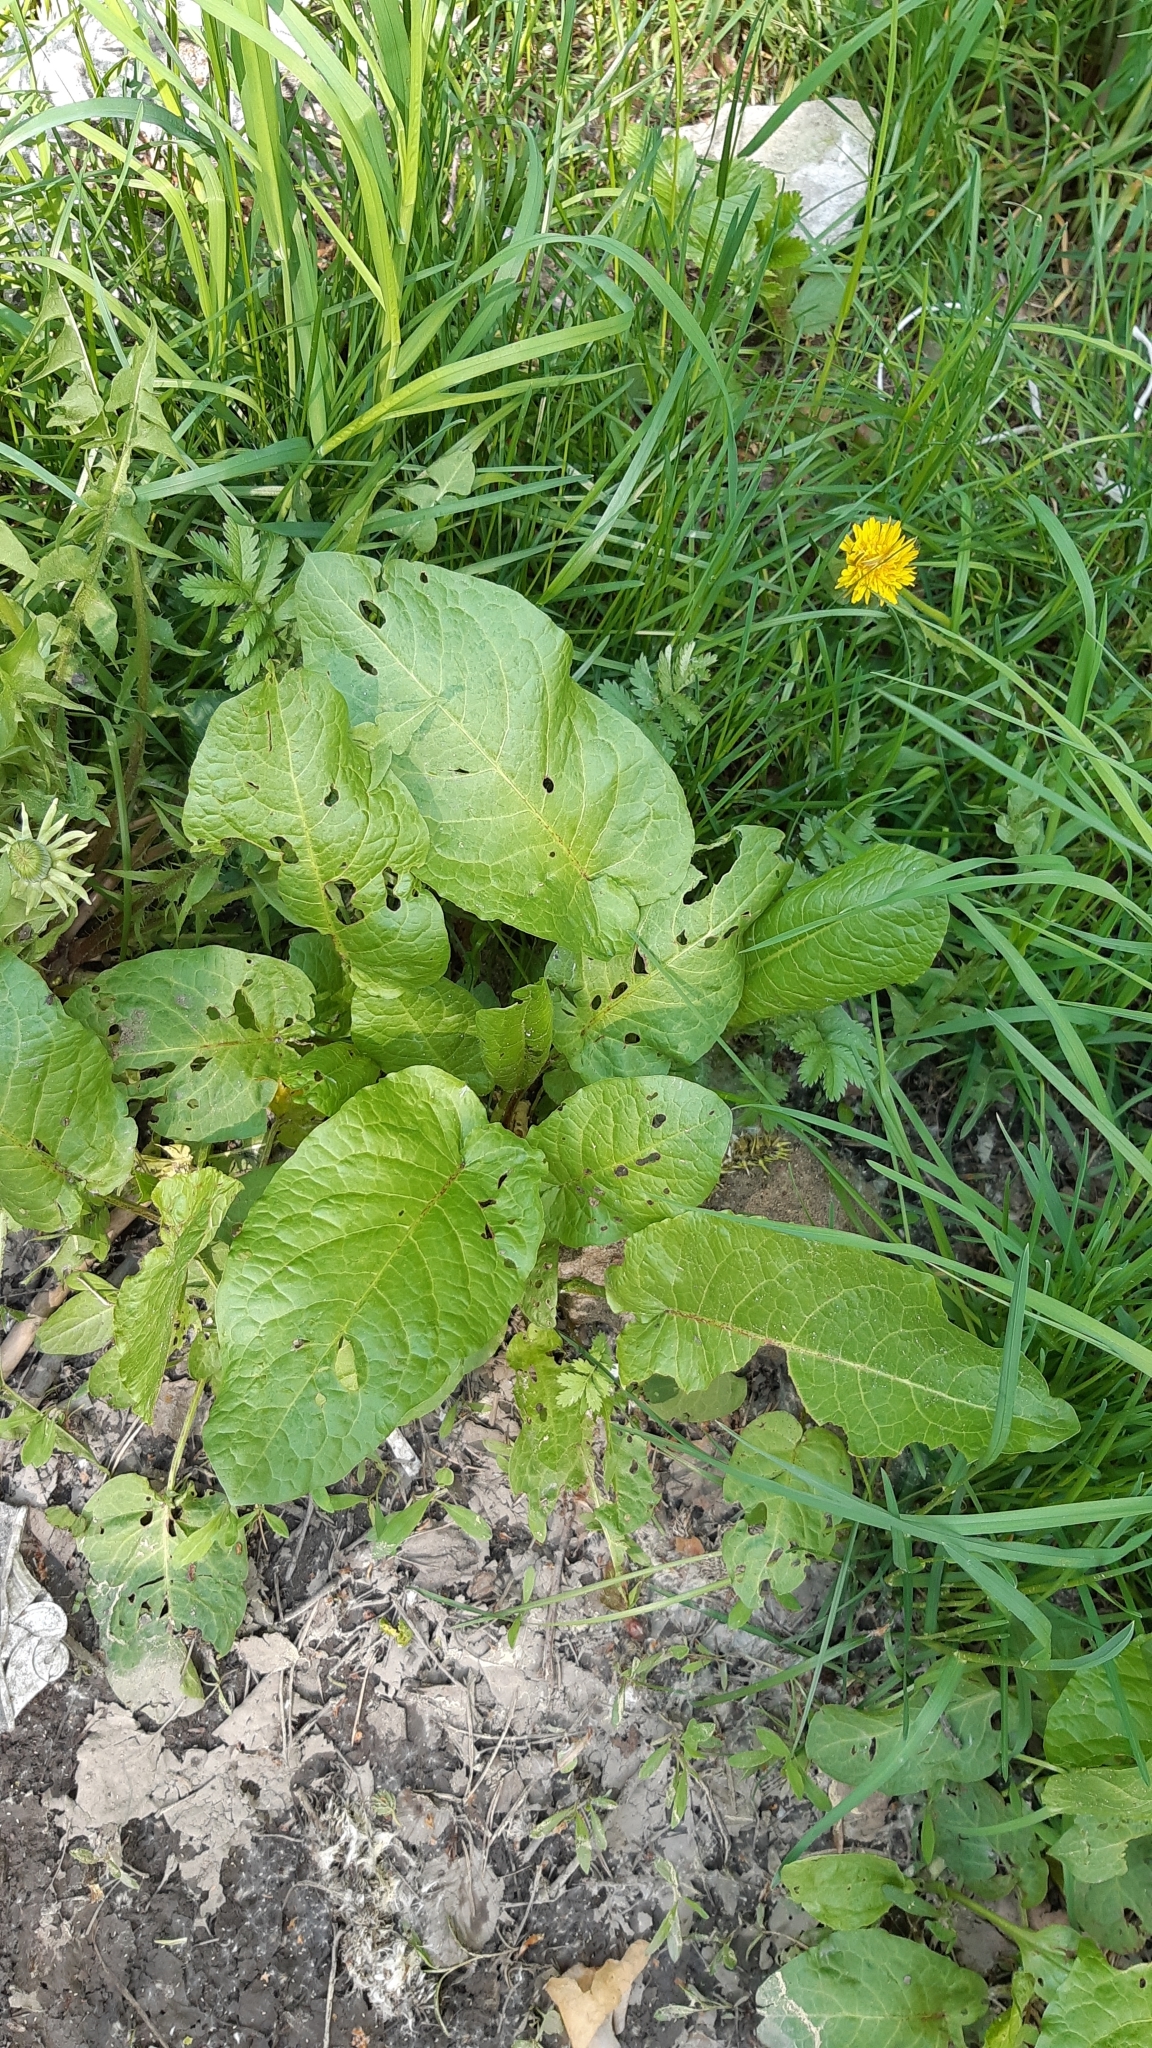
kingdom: Plantae
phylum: Tracheophyta
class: Magnoliopsida
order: Caryophyllales
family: Polygonaceae
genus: Rumex
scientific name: Rumex obtusifolius
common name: Bitter dock
